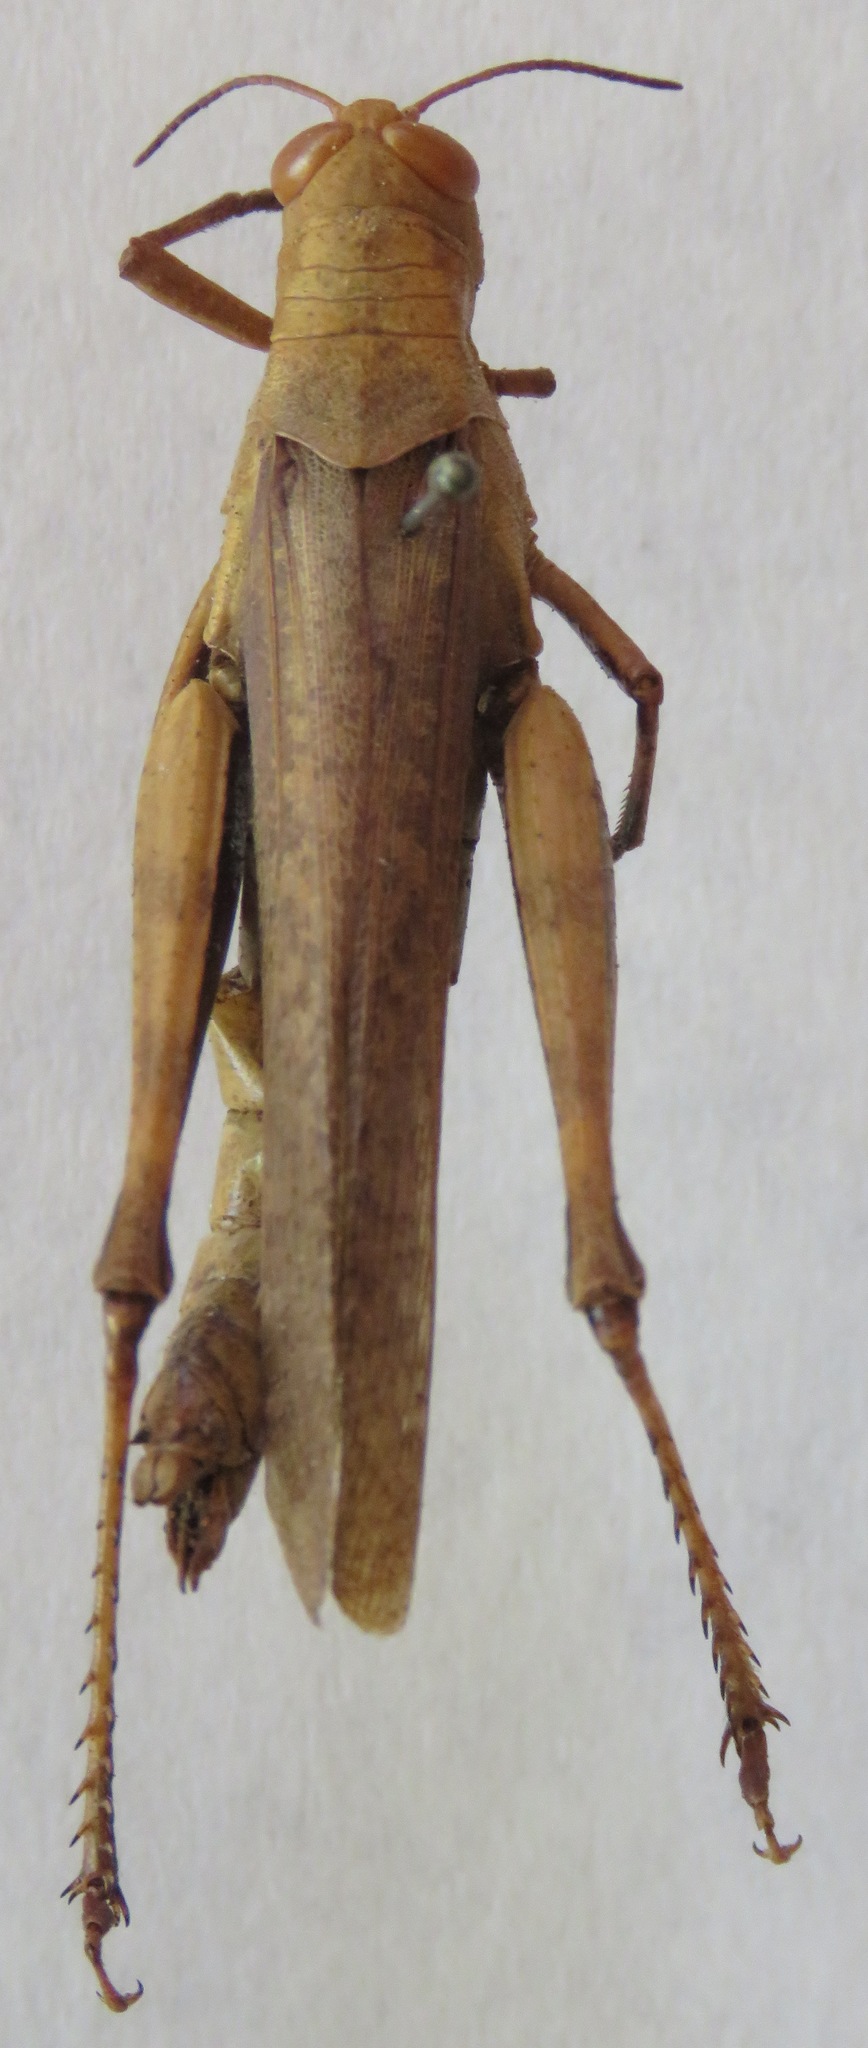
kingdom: Animalia
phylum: Arthropoda
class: Insecta
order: Orthoptera
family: Acrididae
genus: Abracris
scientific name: Abracris flavolineata
